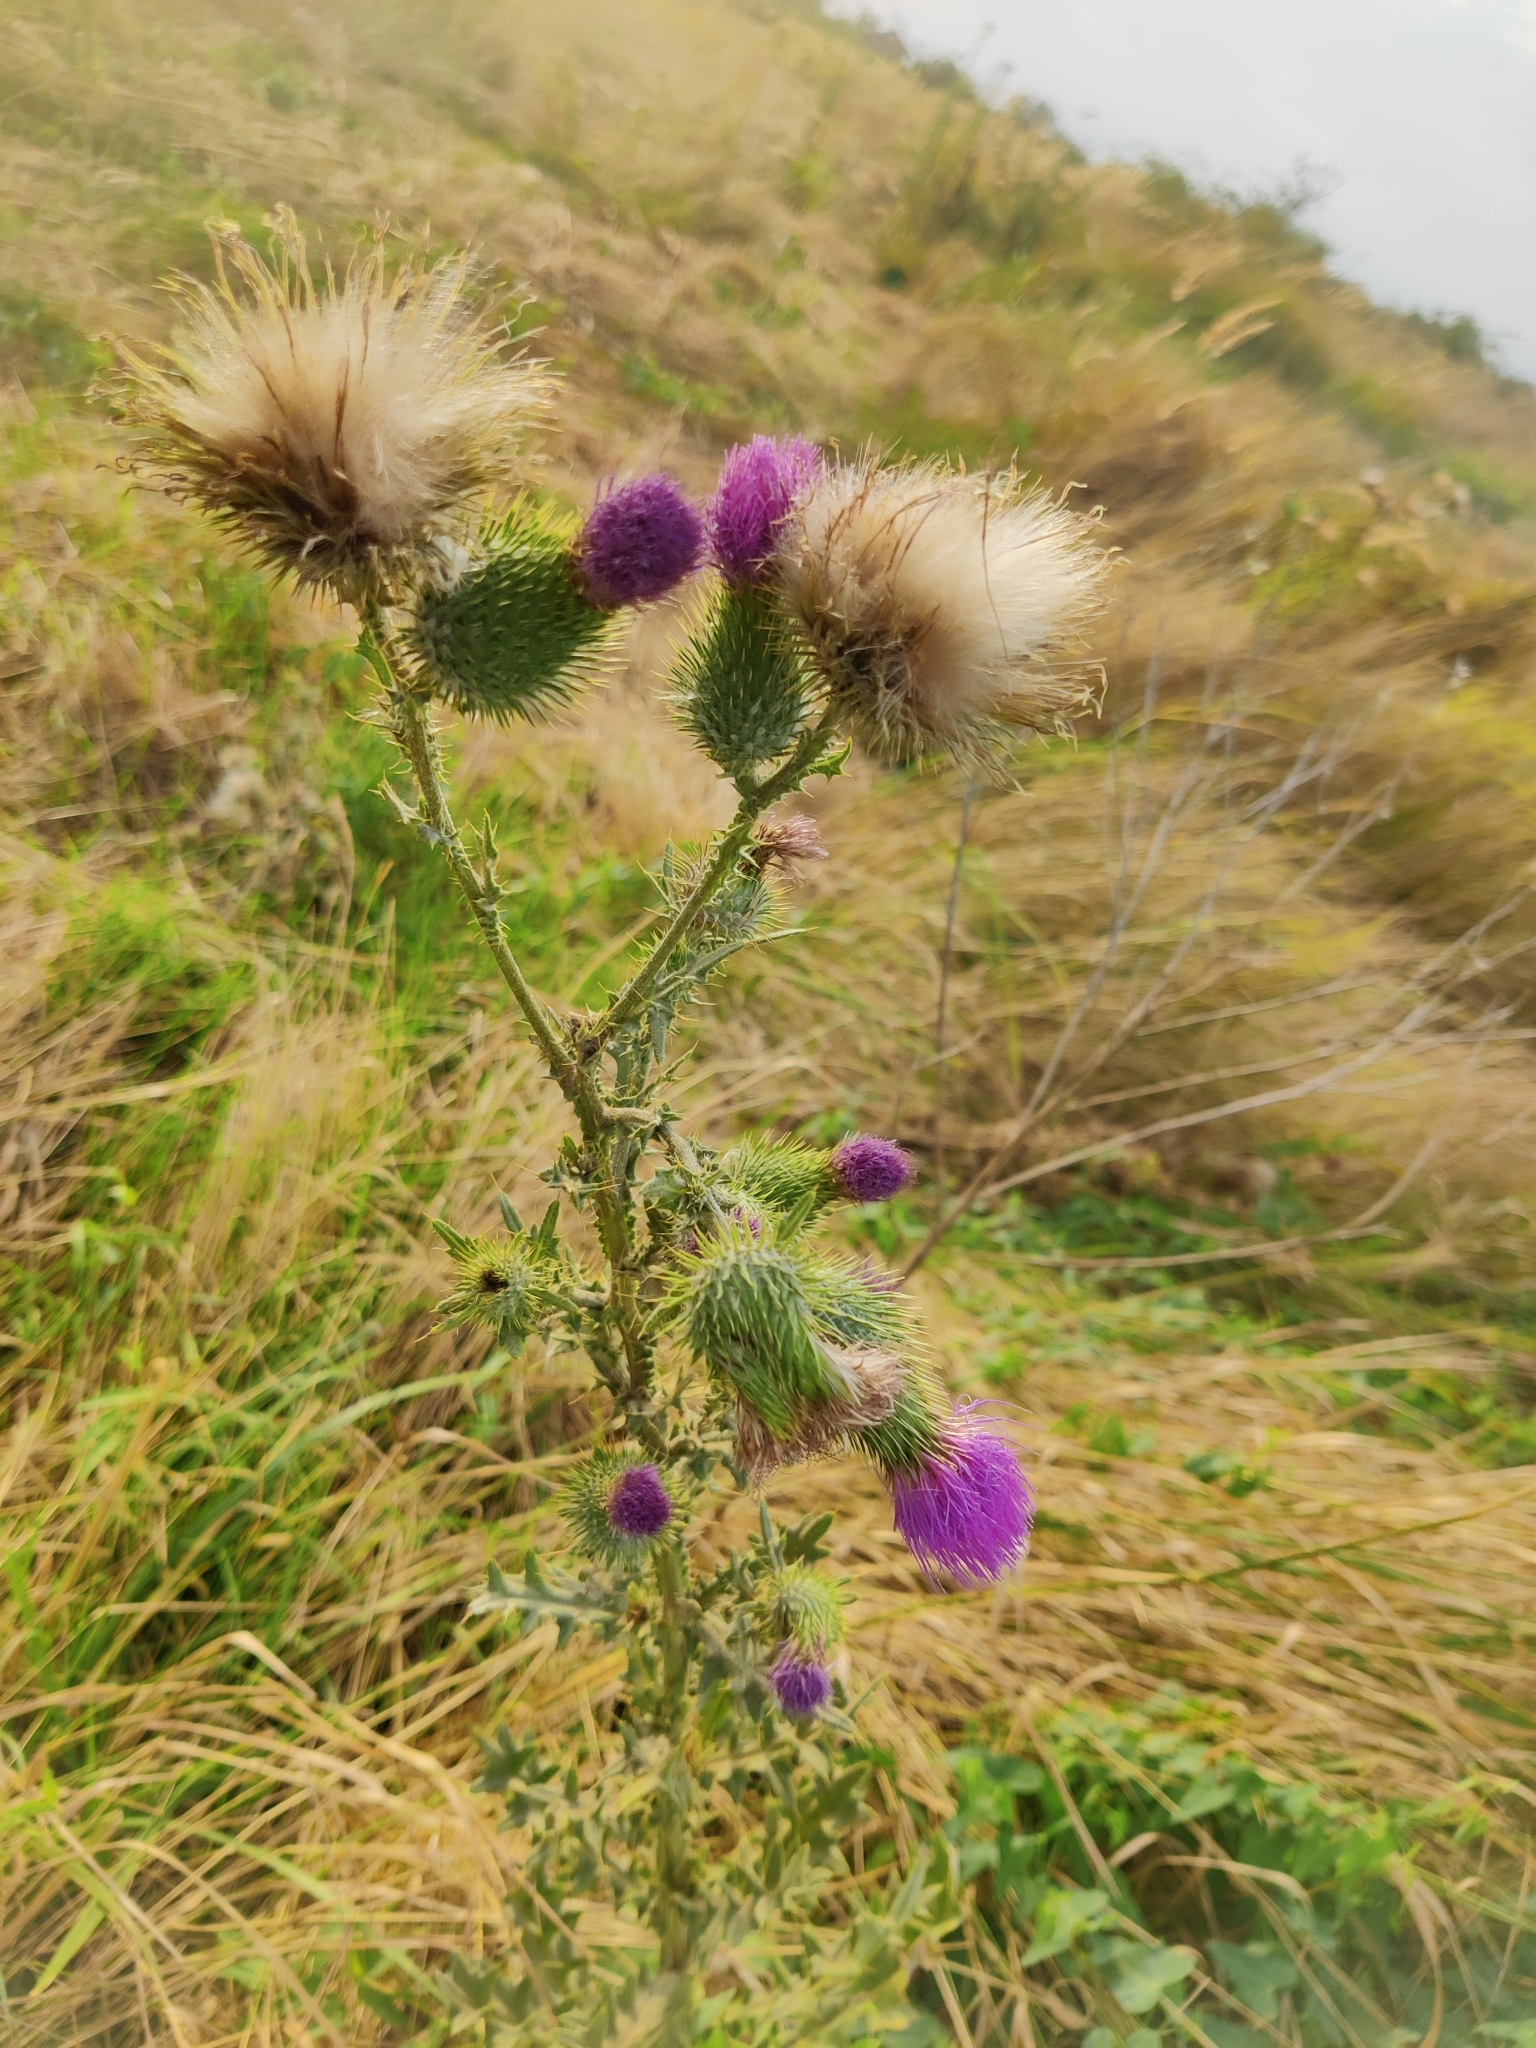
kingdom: Plantae
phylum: Tracheophyta
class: Magnoliopsida
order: Asterales
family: Asteraceae
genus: Cirsium
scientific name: Cirsium vulgare
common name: Bull thistle
